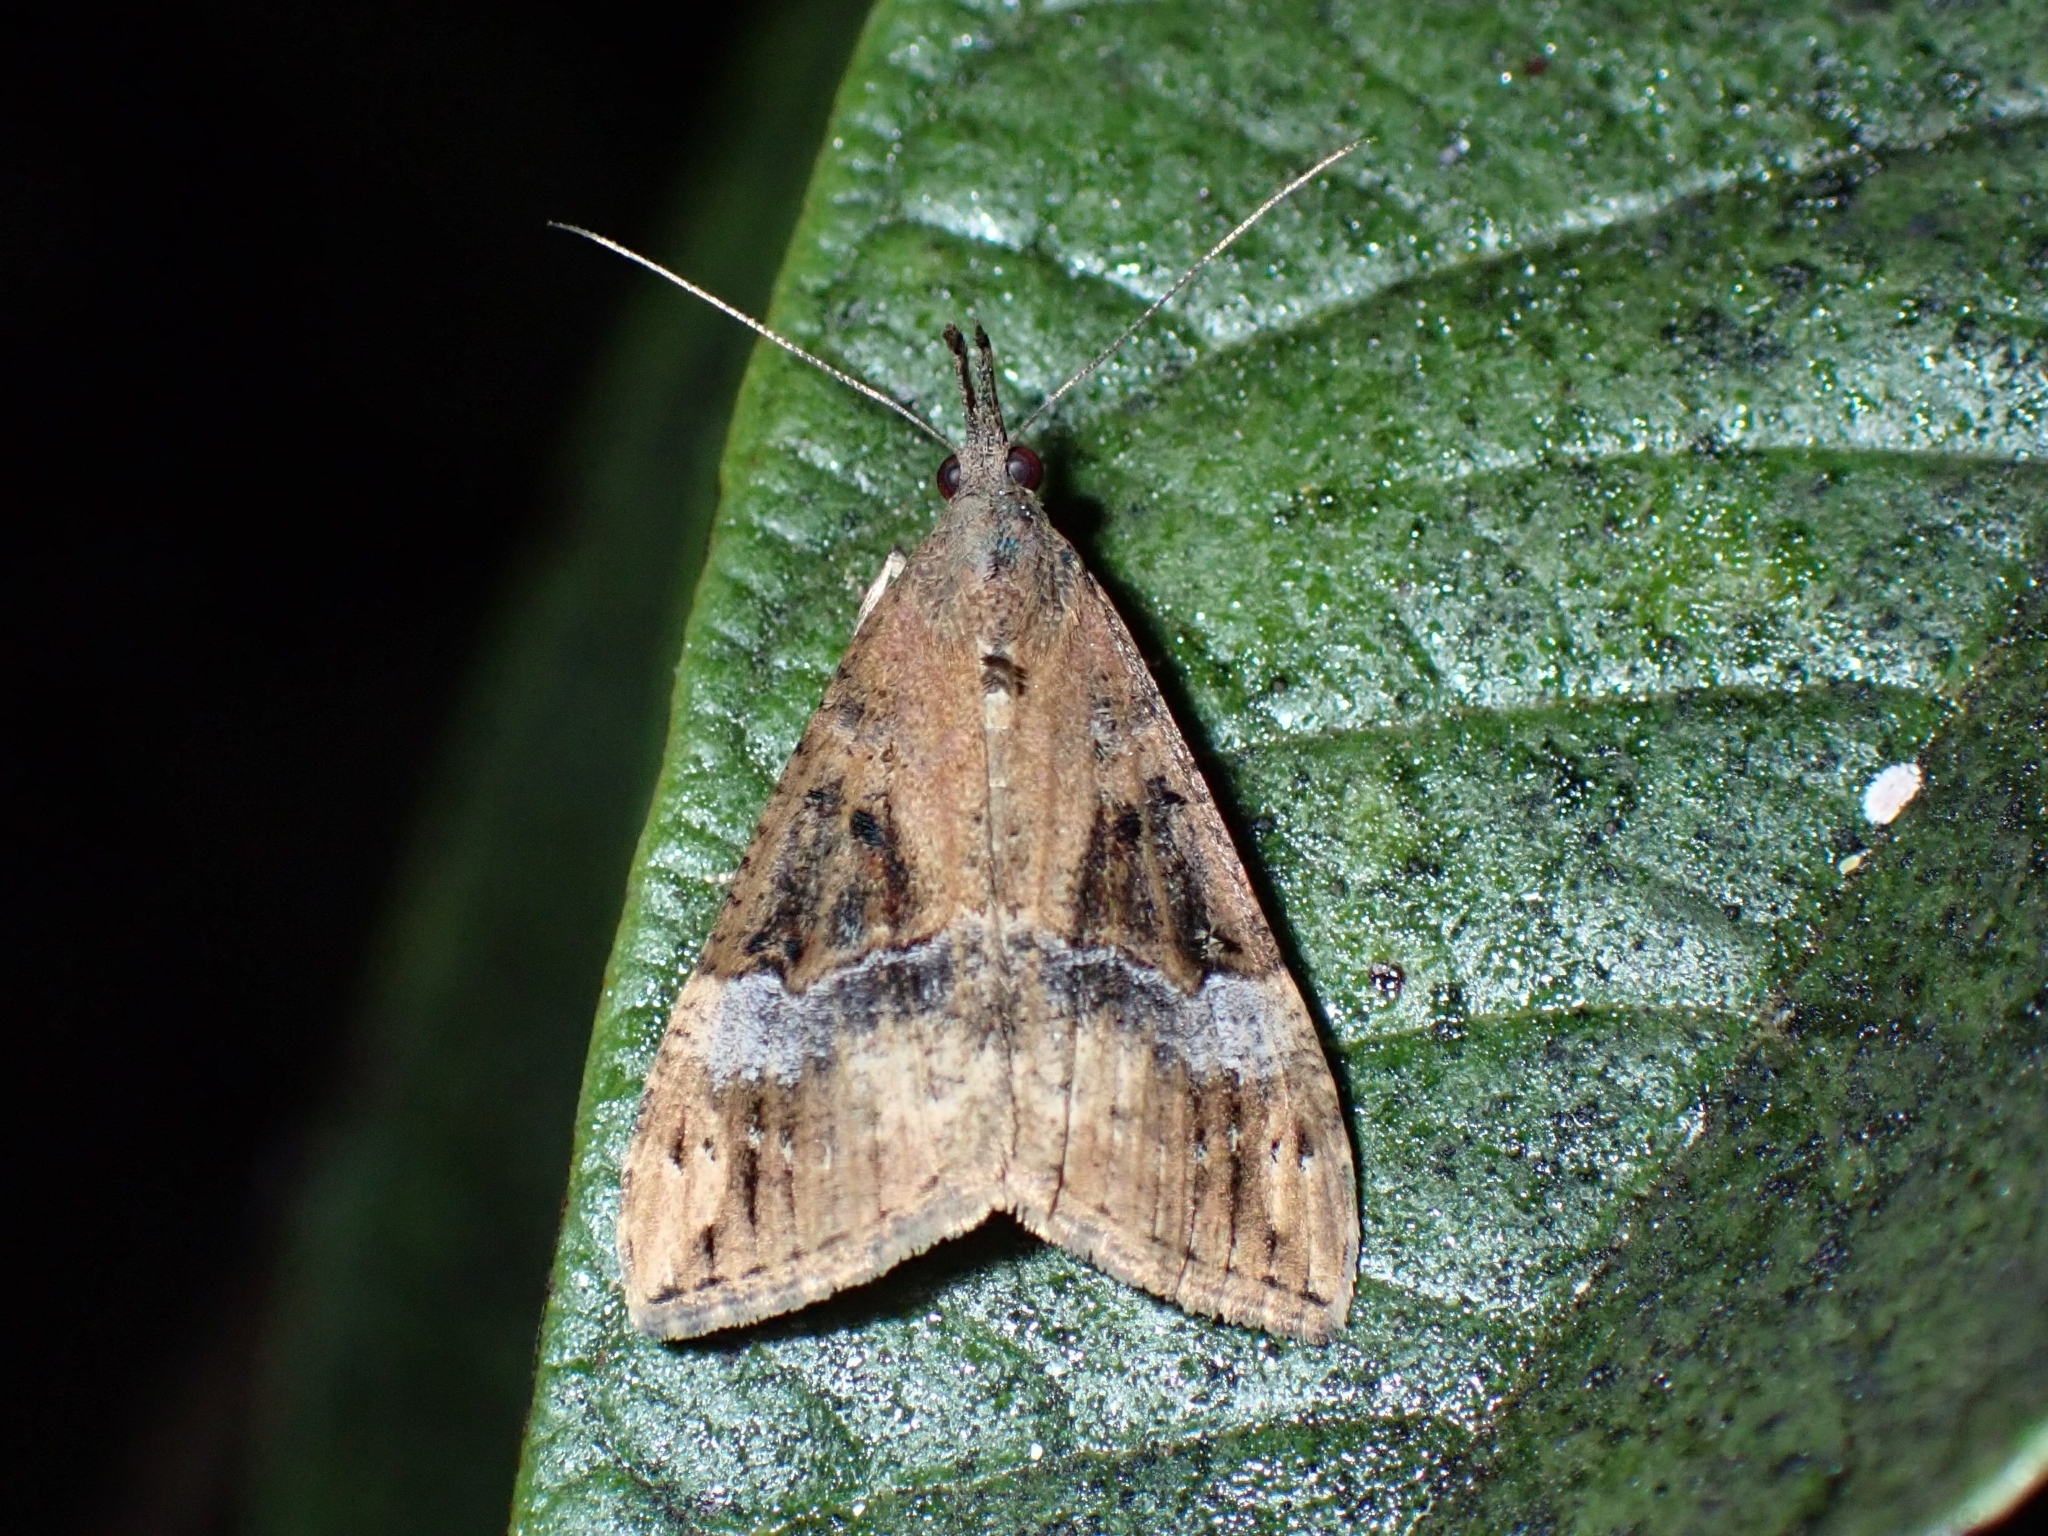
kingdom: Animalia
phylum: Arthropoda
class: Insecta
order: Lepidoptera
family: Erebidae
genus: Hypena
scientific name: Hypena obsitalis
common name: Bloxworth snout
